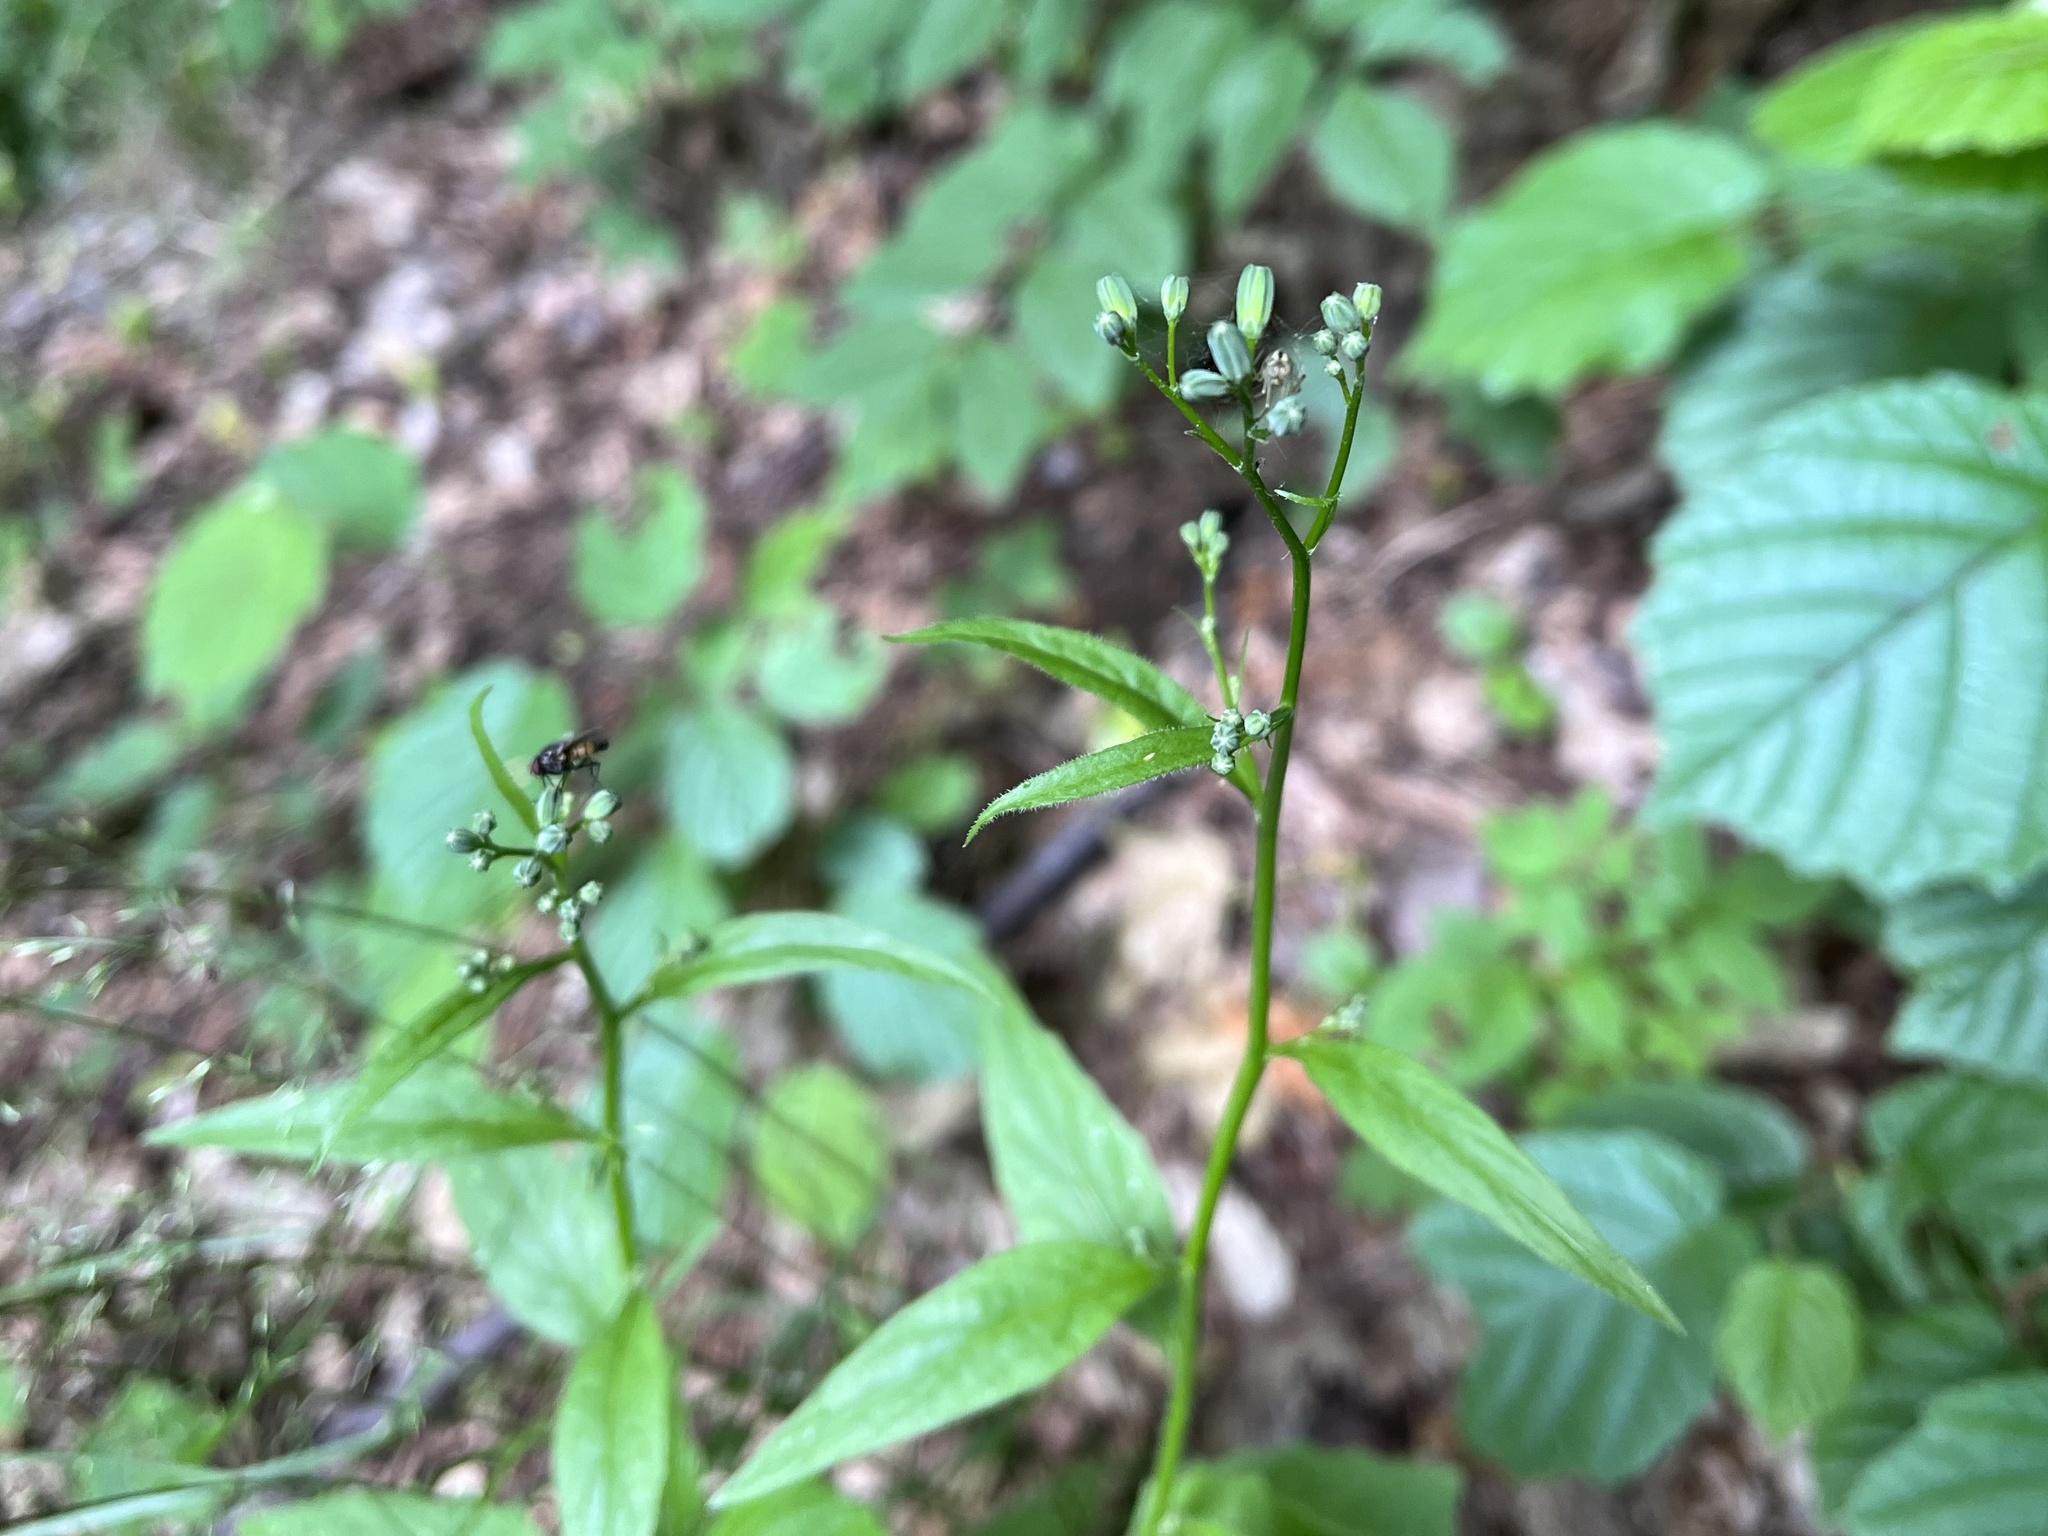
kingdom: Plantae
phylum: Tracheophyta
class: Magnoliopsida
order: Asterales
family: Asteraceae
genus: Lapsana
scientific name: Lapsana communis
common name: Nipplewort
